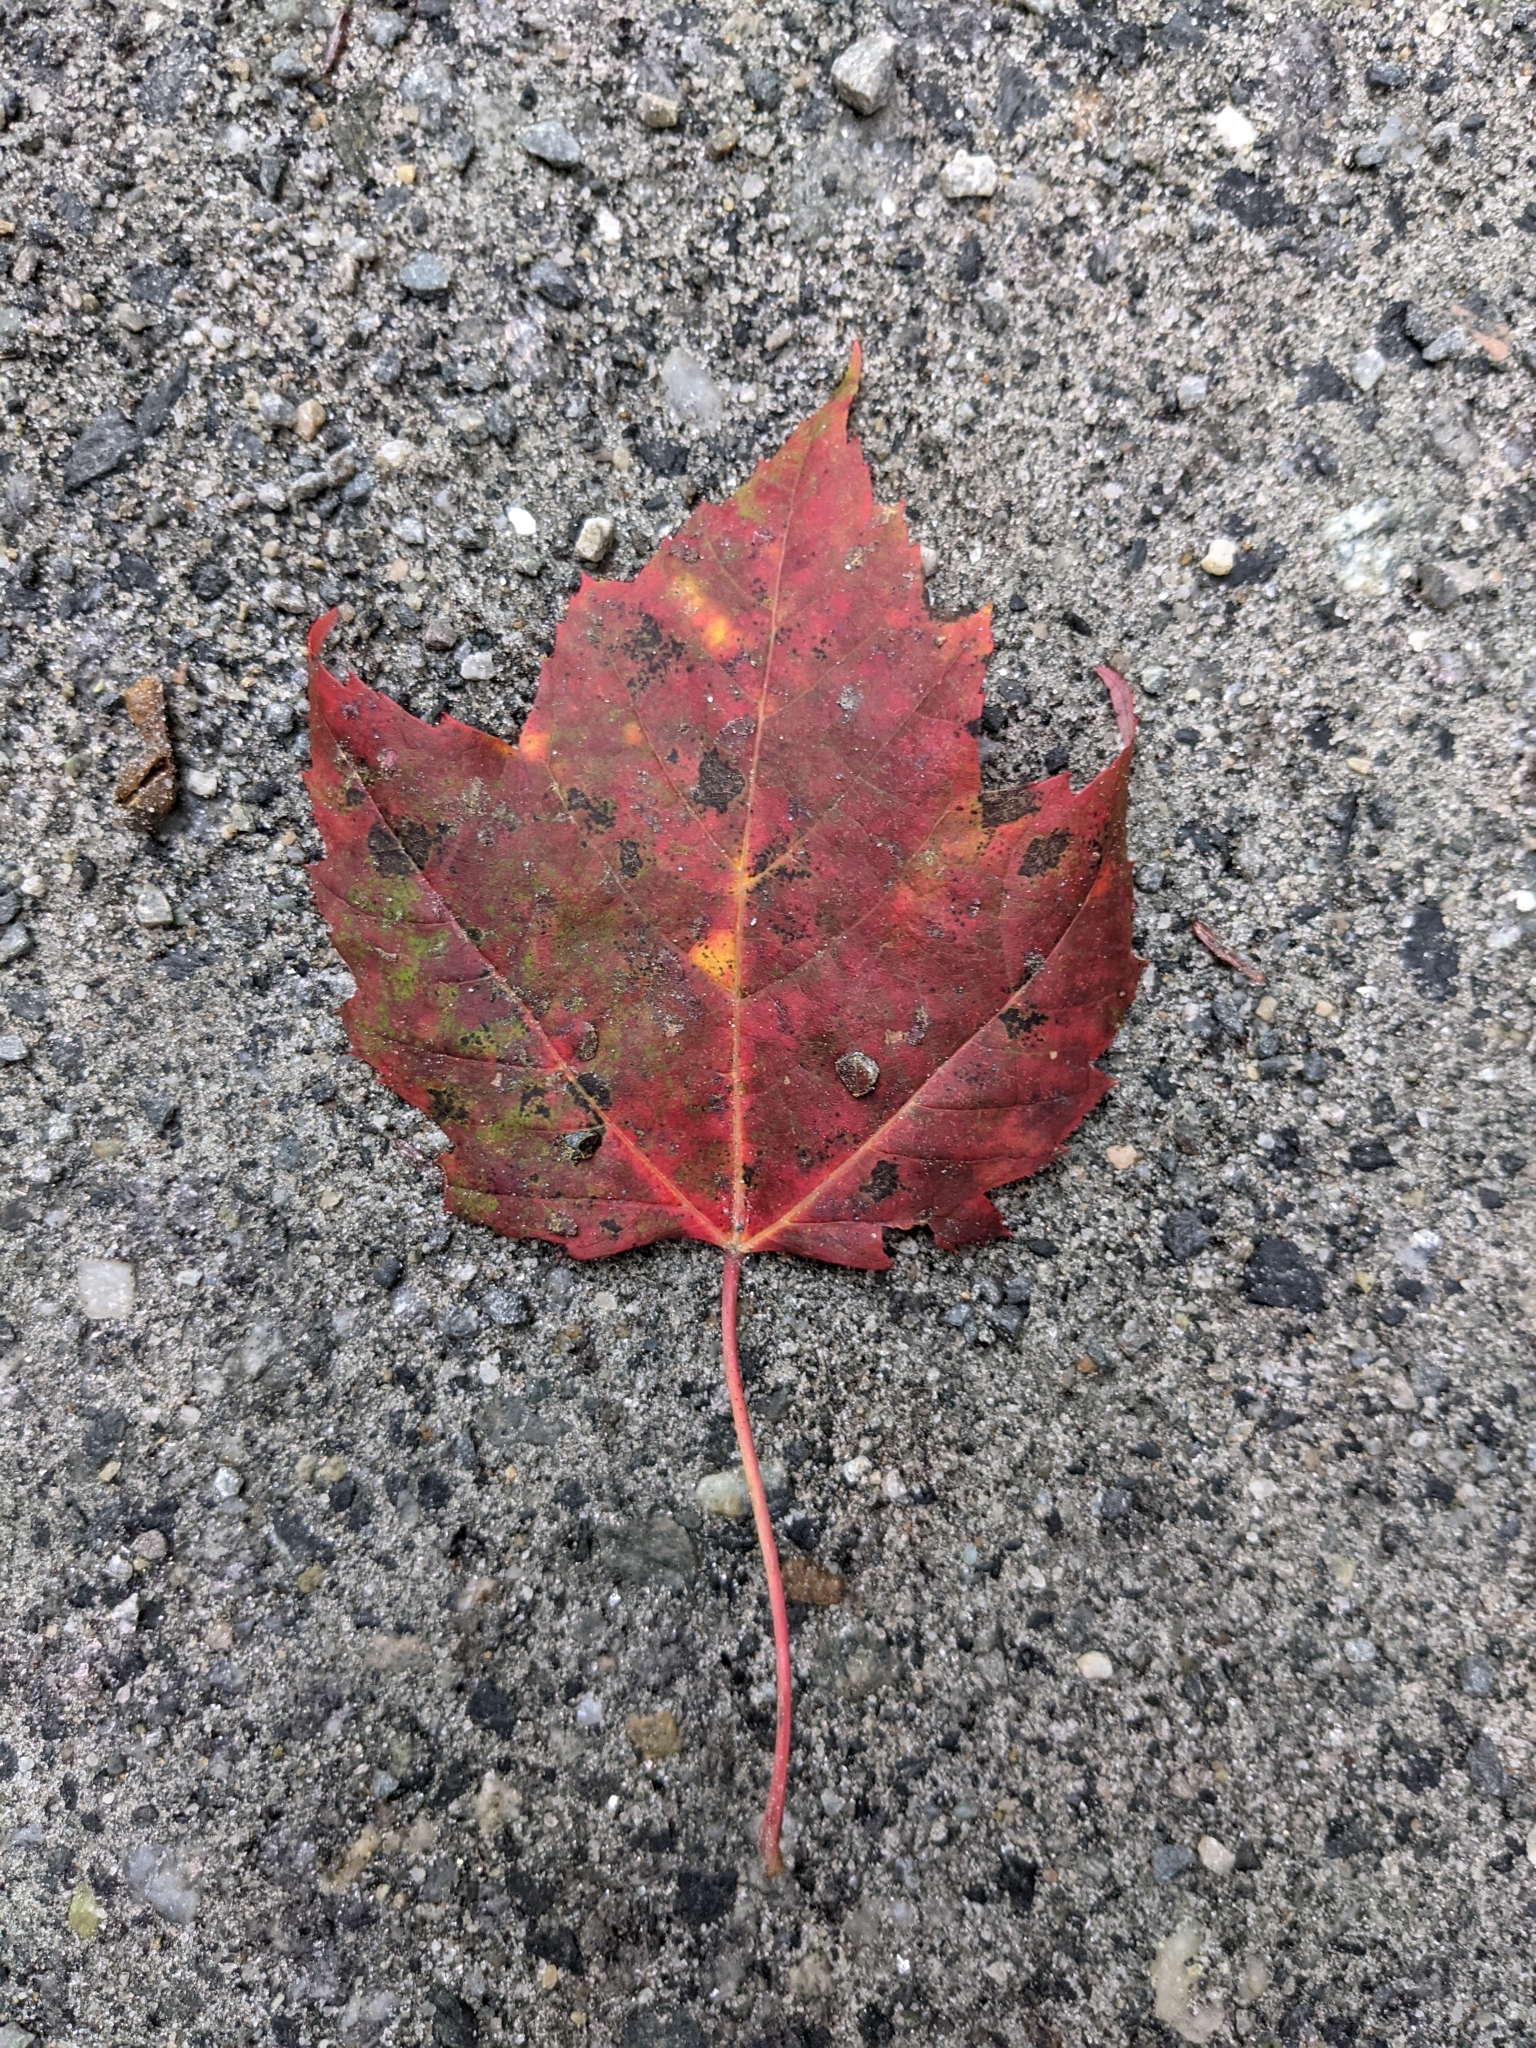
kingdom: Plantae
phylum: Tracheophyta
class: Magnoliopsida
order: Sapindales
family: Sapindaceae
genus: Acer
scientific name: Acer rubrum
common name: Red maple
